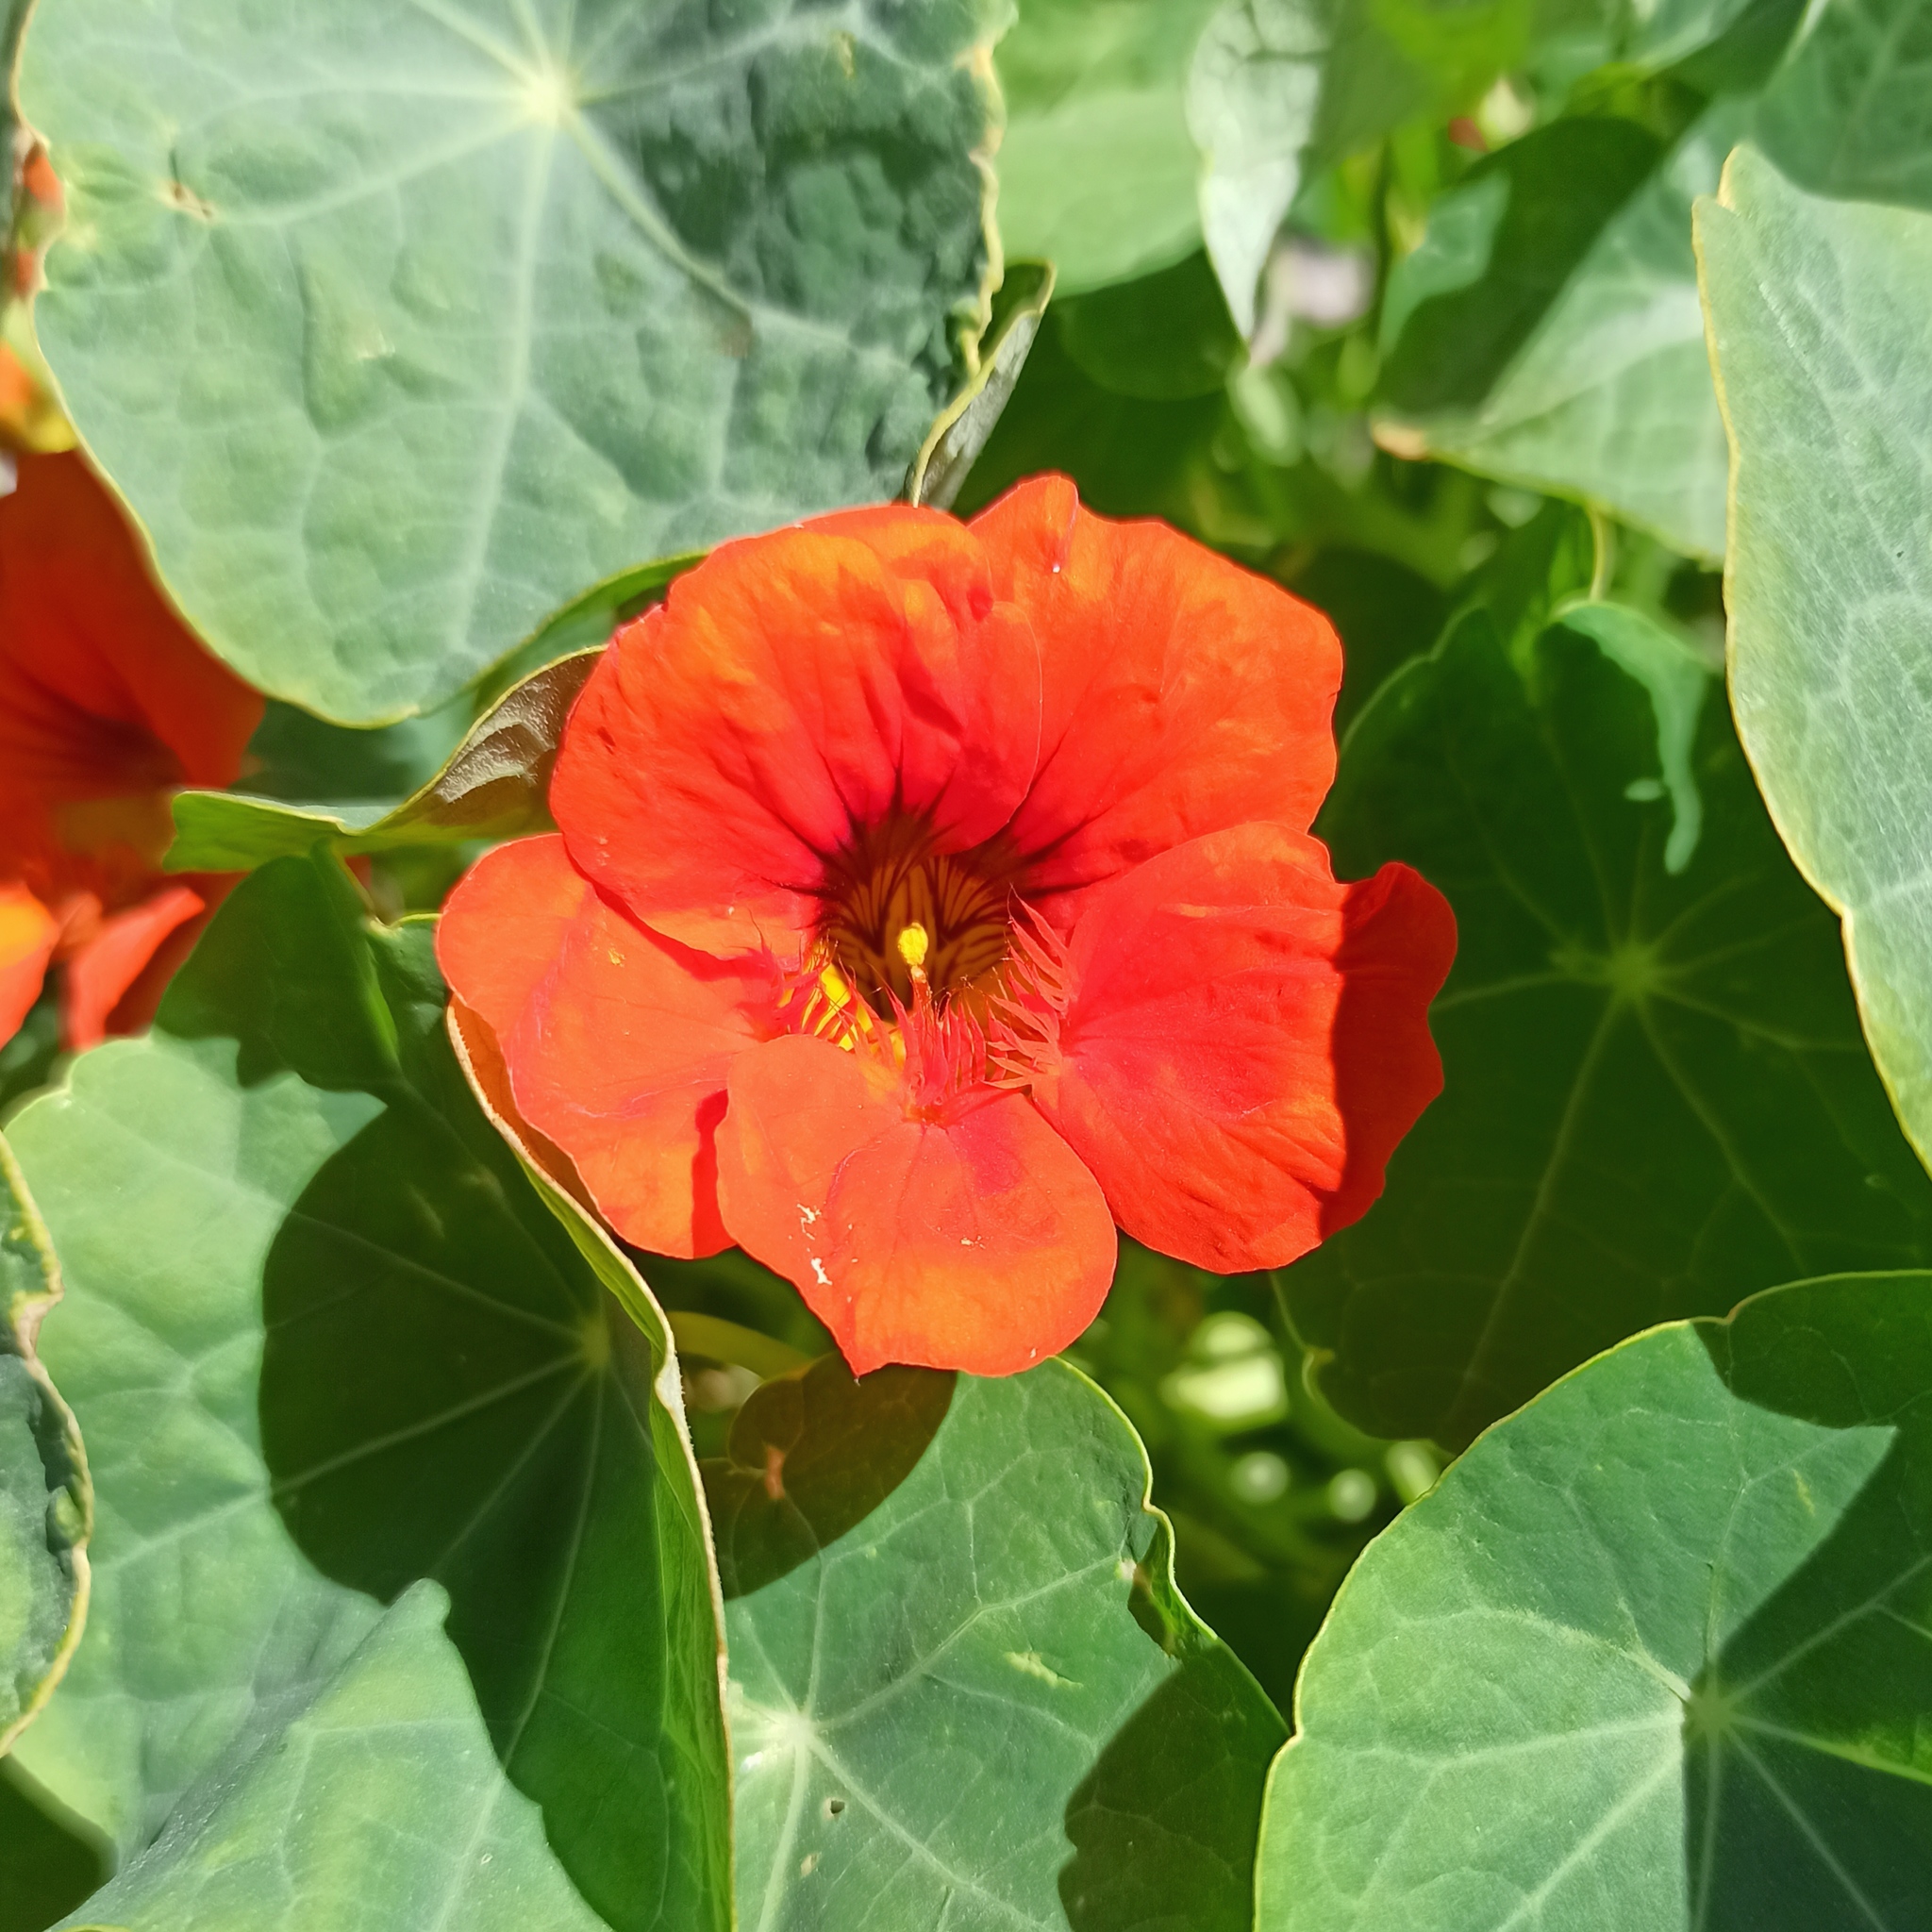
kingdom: Plantae
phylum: Tracheophyta
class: Magnoliopsida
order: Brassicales
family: Tropaeolaceae
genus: Tropaeolum
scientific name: Tropaeolum majus
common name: Nasturtium
